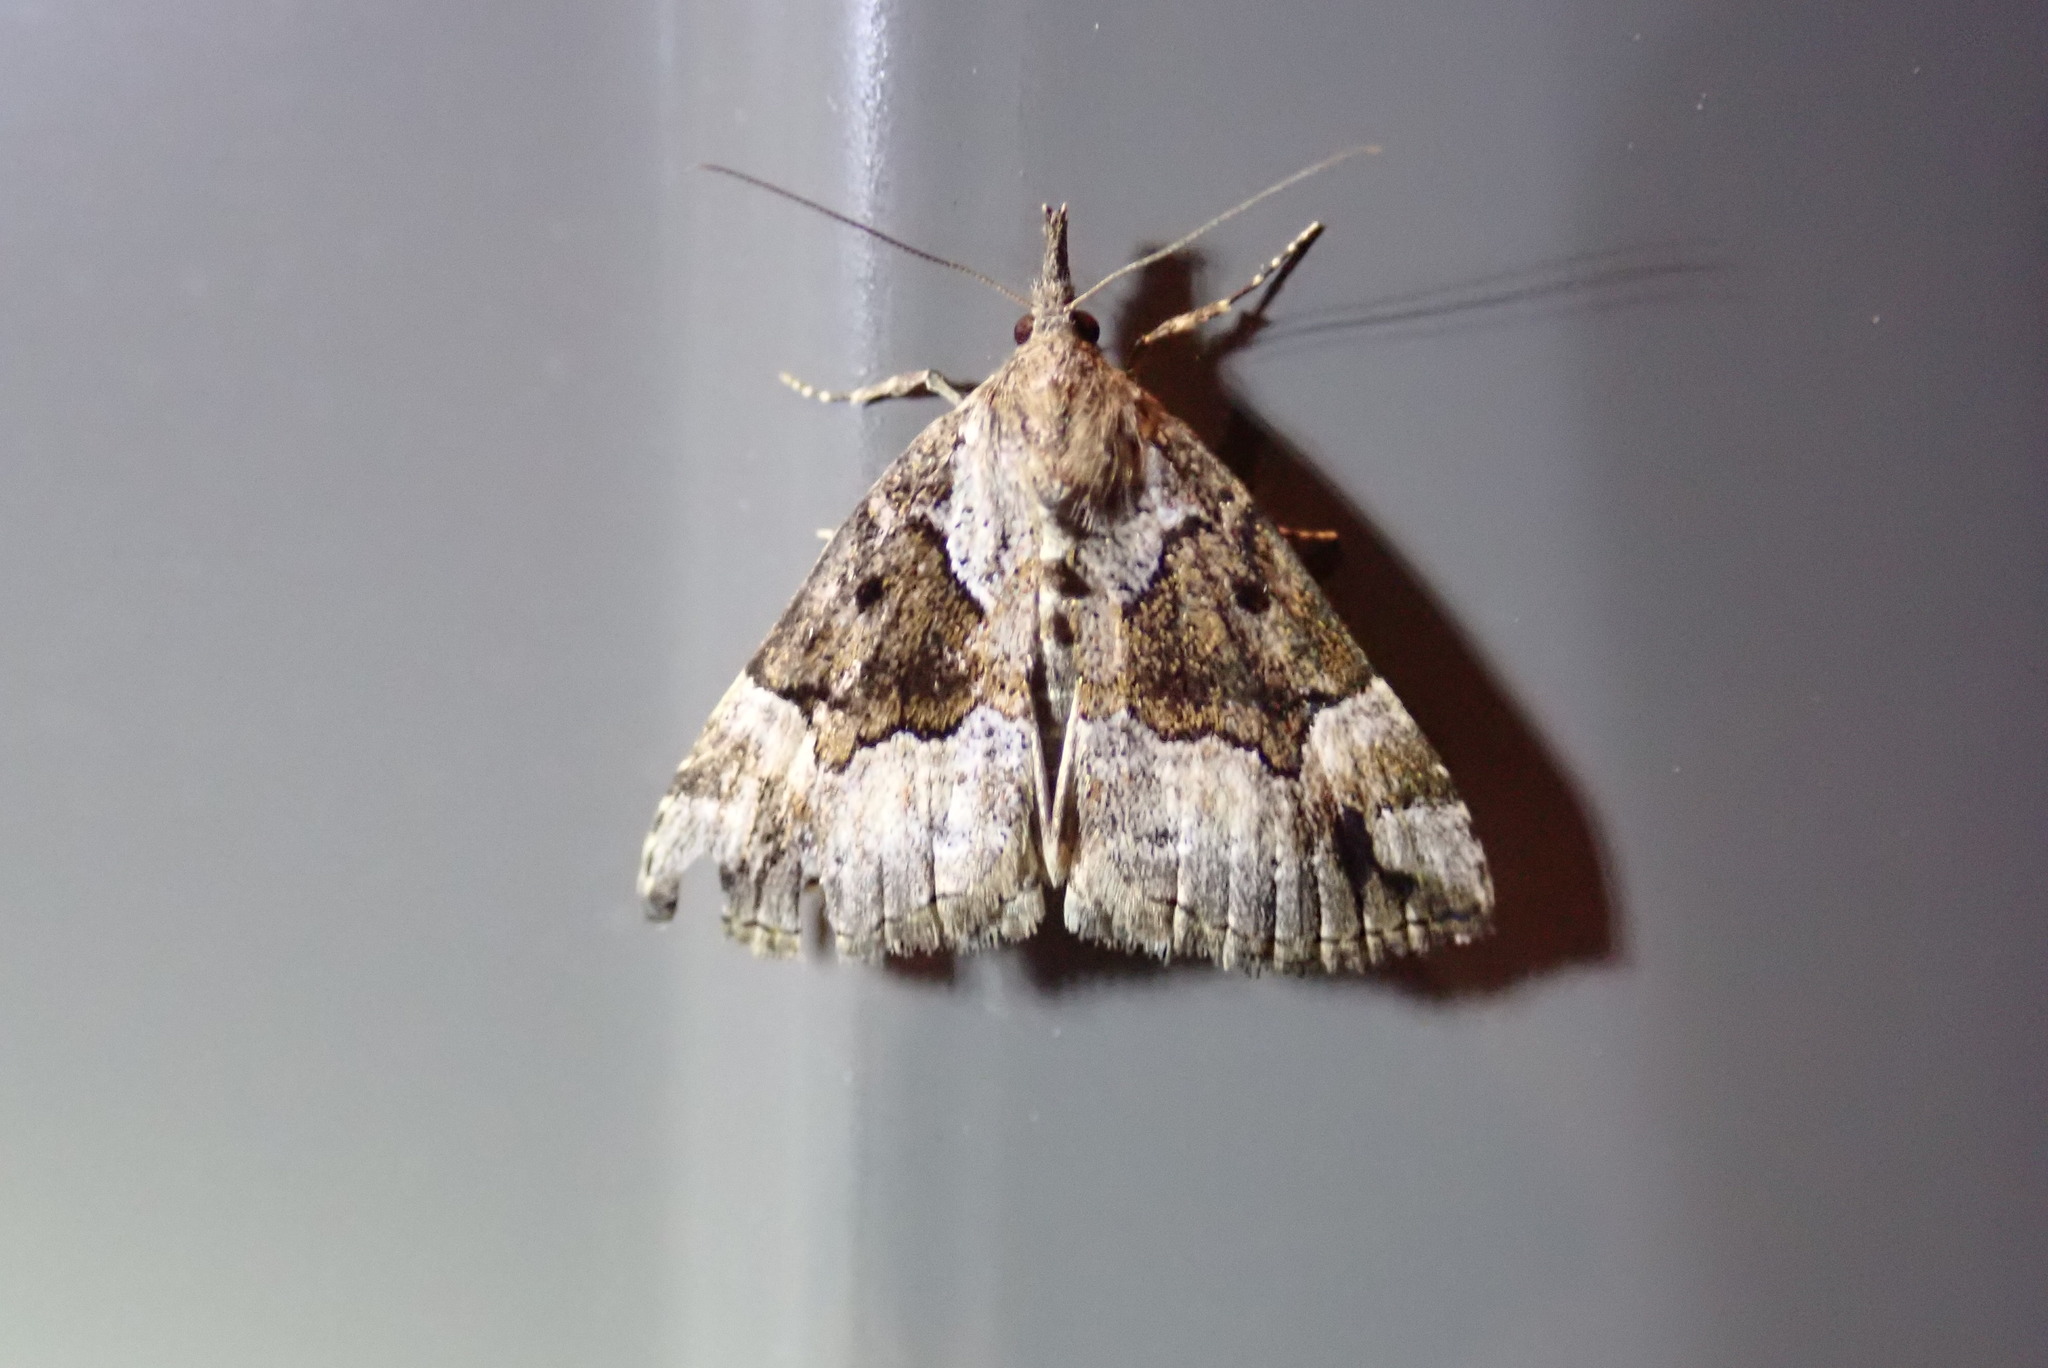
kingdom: Animalia
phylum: Arthropoda
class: Insecta
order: Lepidoptera
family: Erebidae
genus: Hypena
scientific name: Hypena palparia
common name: Mottled bomolocha moth
